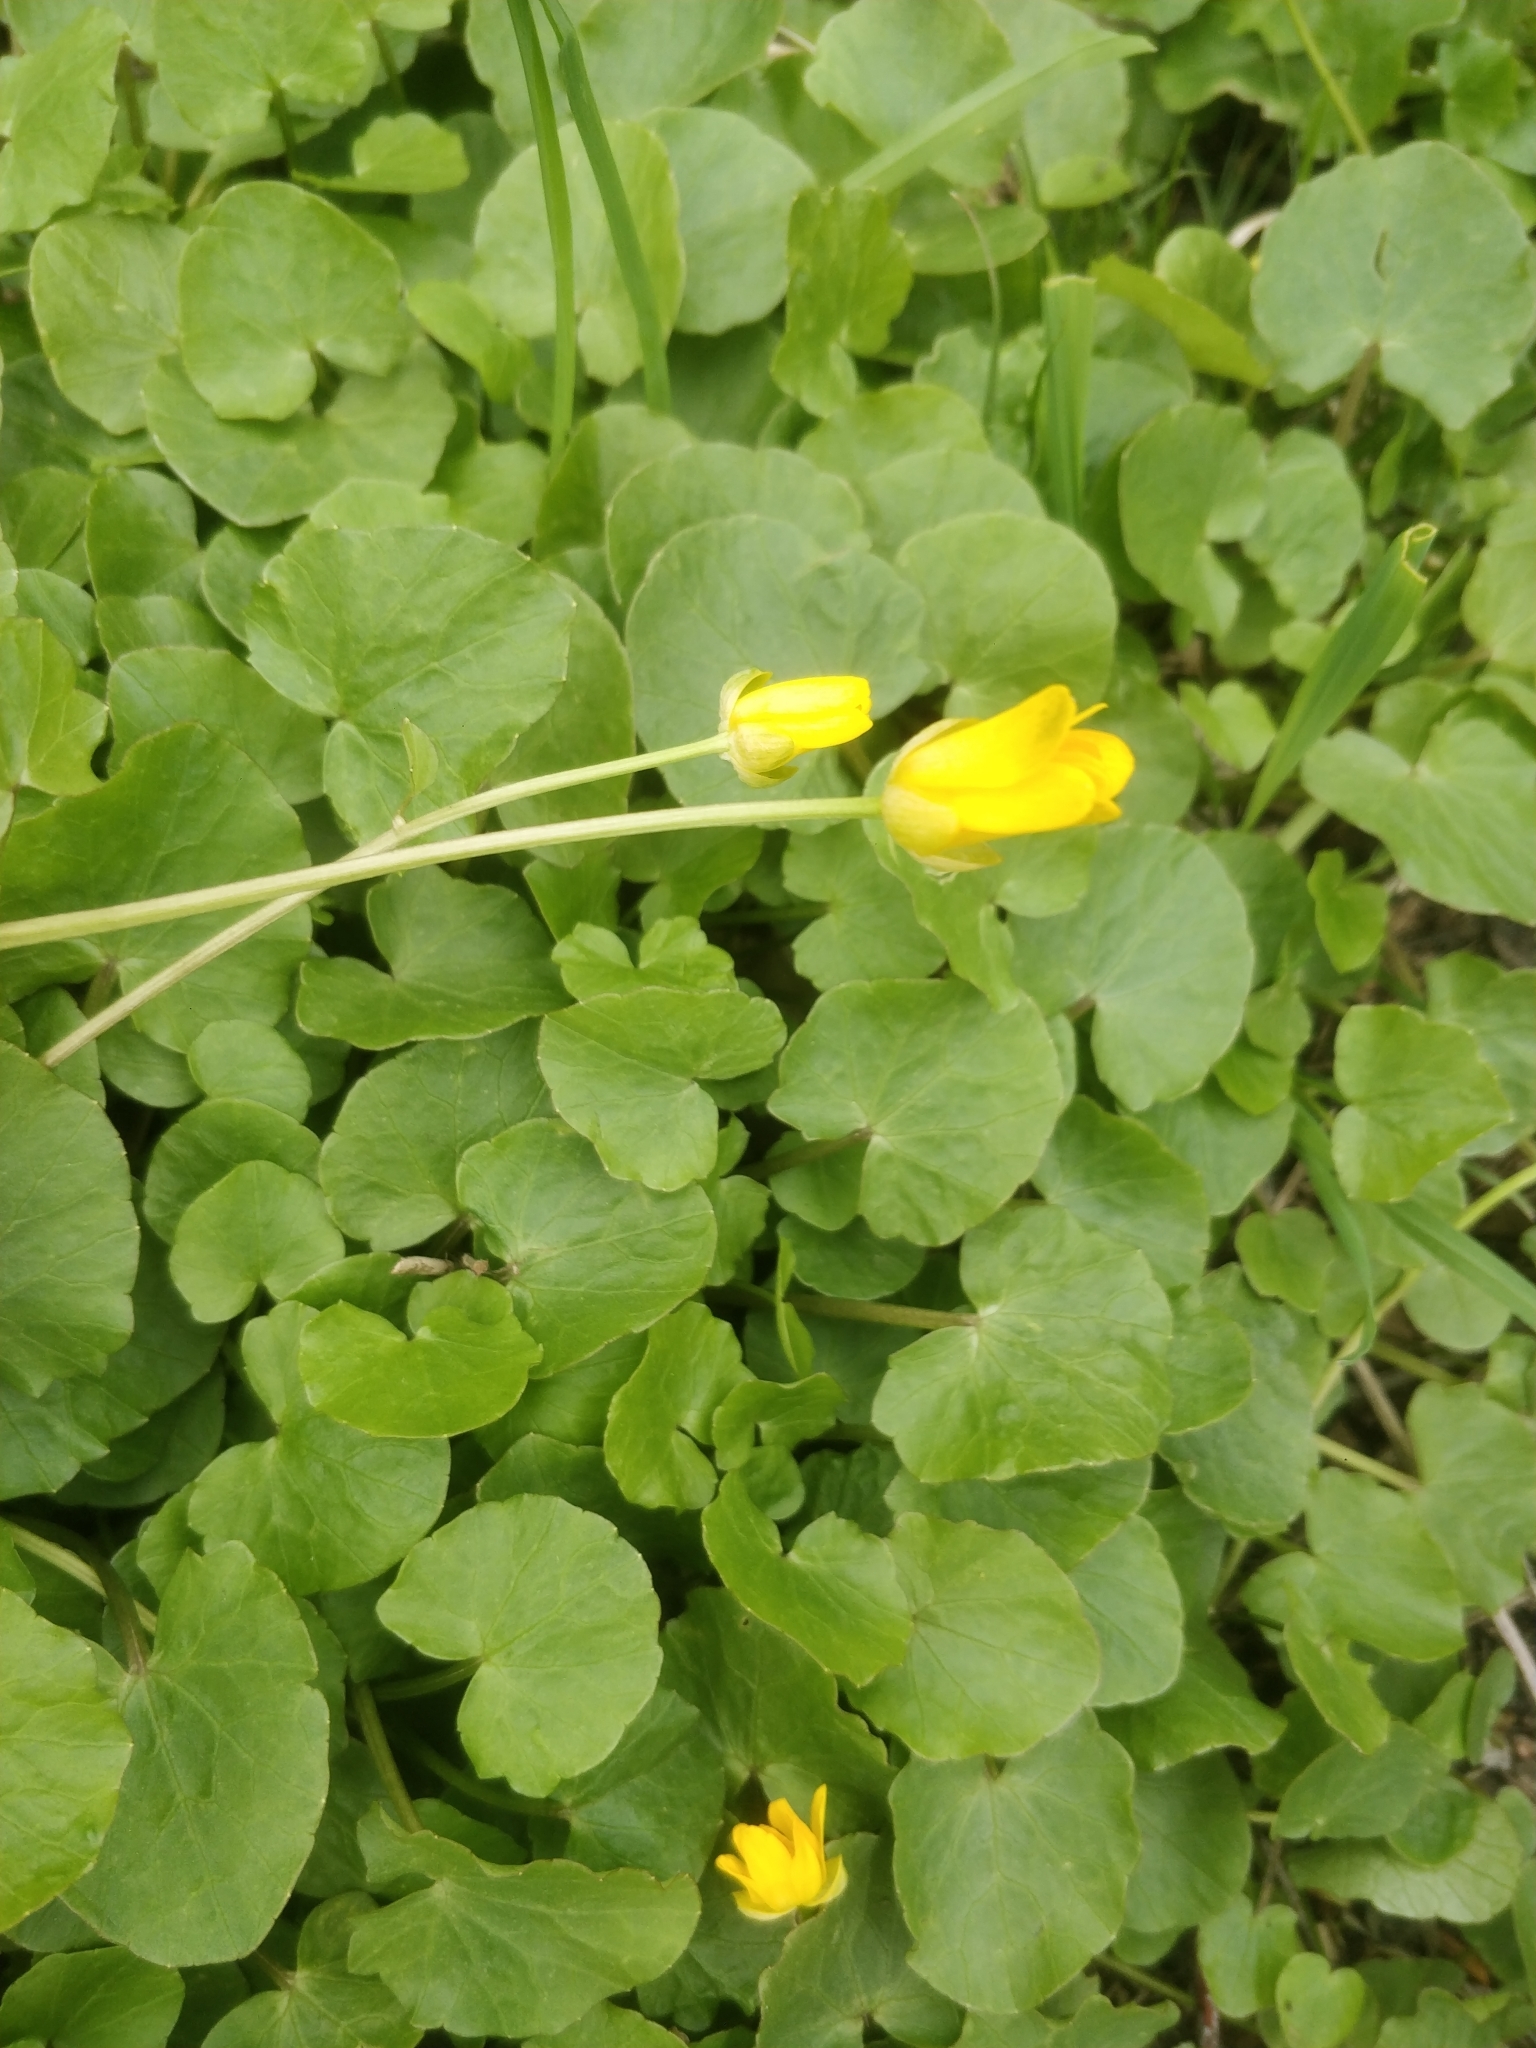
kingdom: Plantae
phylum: Tracheophyta
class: Magnoliopsida
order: Ranunculales
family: Ranunculaceae
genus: Ficaria
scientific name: Ficaria verna
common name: Lesser celandine
